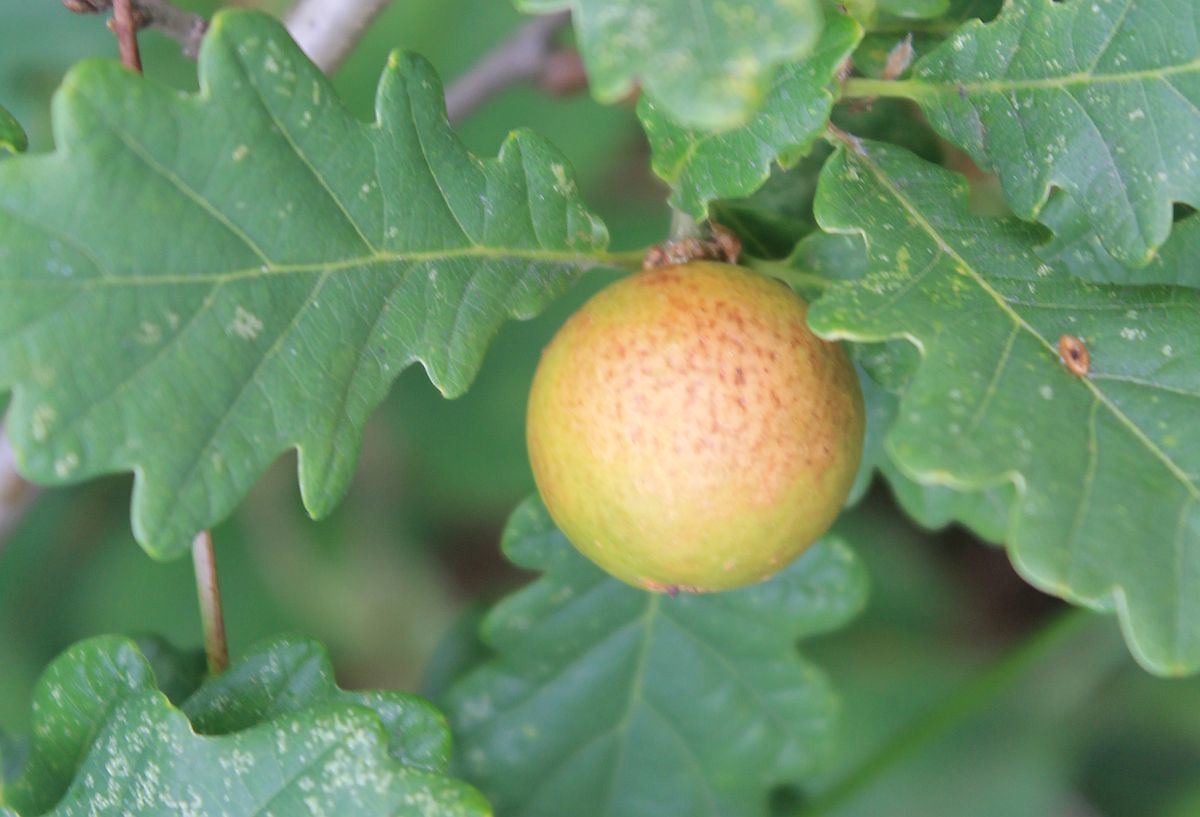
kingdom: Animalia
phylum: Arthropoda
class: Insecta
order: Hymenoptera
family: Cynipidae
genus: Andricus
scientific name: Andricus kollari
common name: Marble gall
